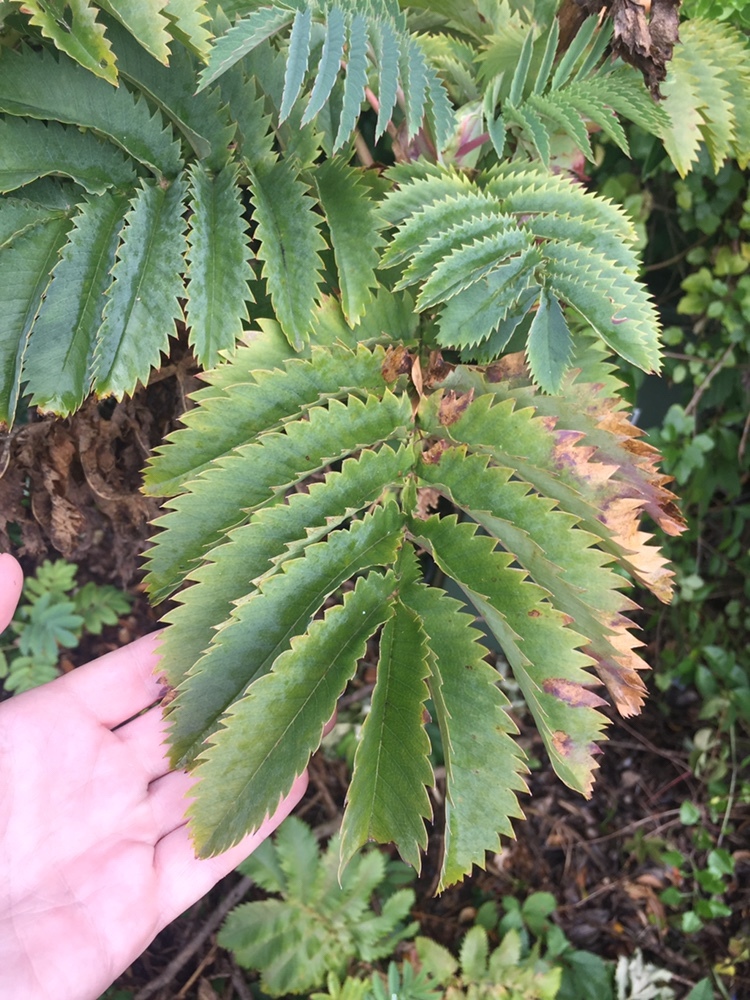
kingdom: Plantae
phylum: Tracheophyta
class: Magnoliopsida
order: Geraniales
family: Melianthaceae
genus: Melianthus
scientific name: Melianthus major
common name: Honey-flower
